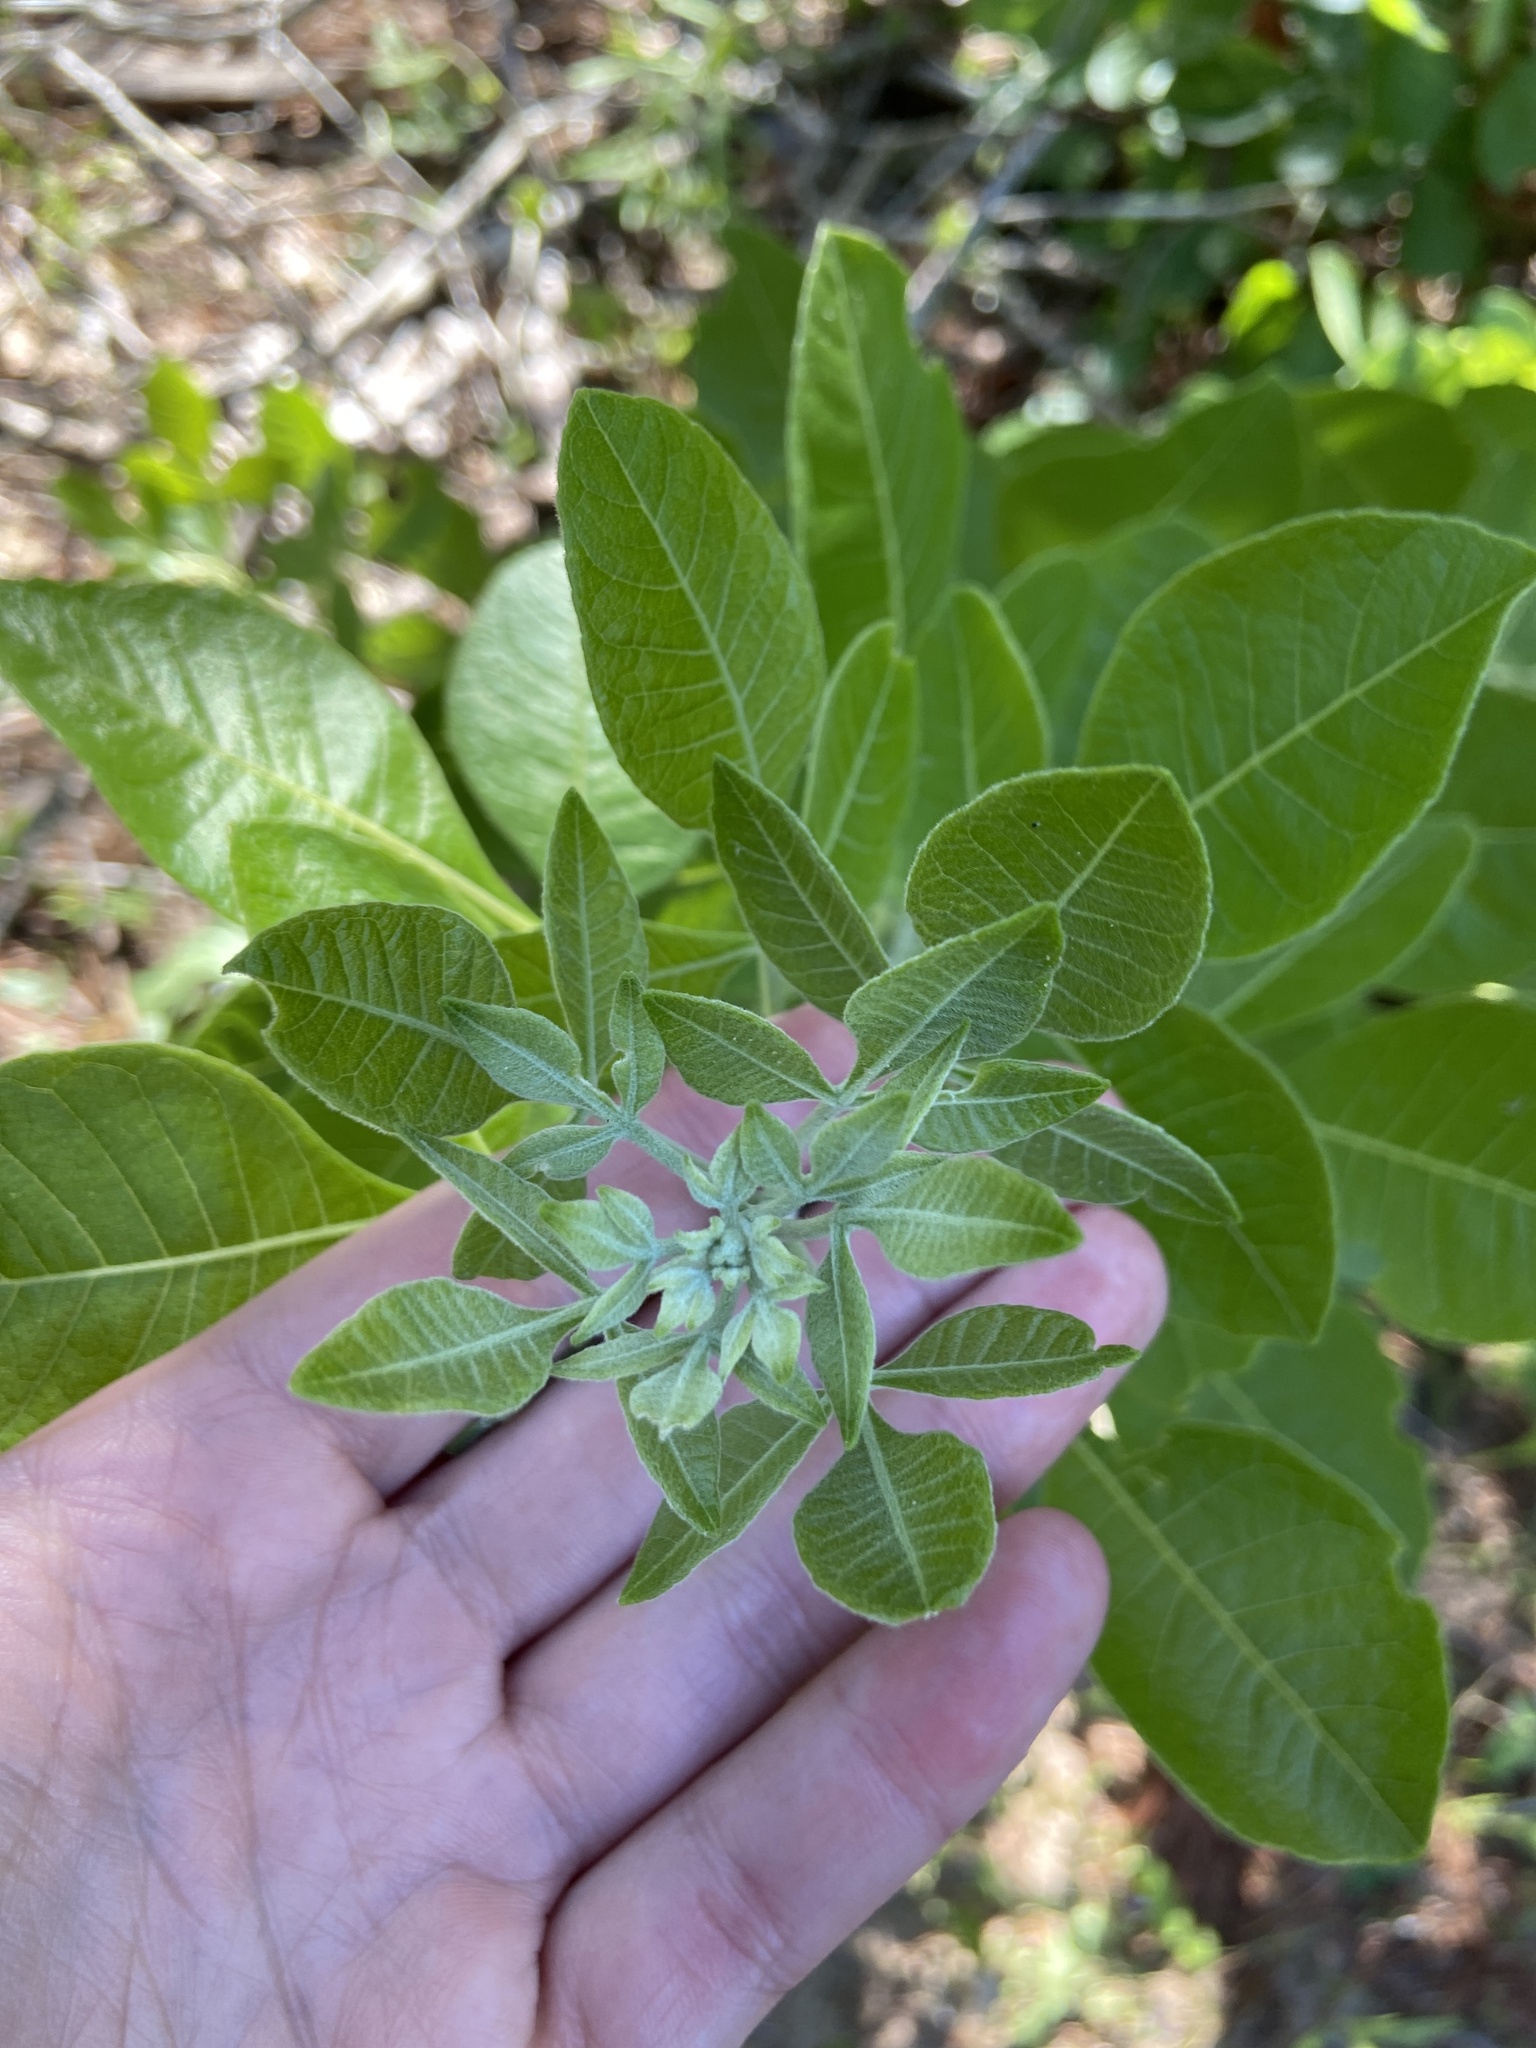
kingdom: Plantae
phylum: Tracheophyta
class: Magnoliopsida
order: Sapindales
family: Rutaceae
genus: Ptelea
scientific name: Ptelea trifoliata
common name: Common hop-tree
